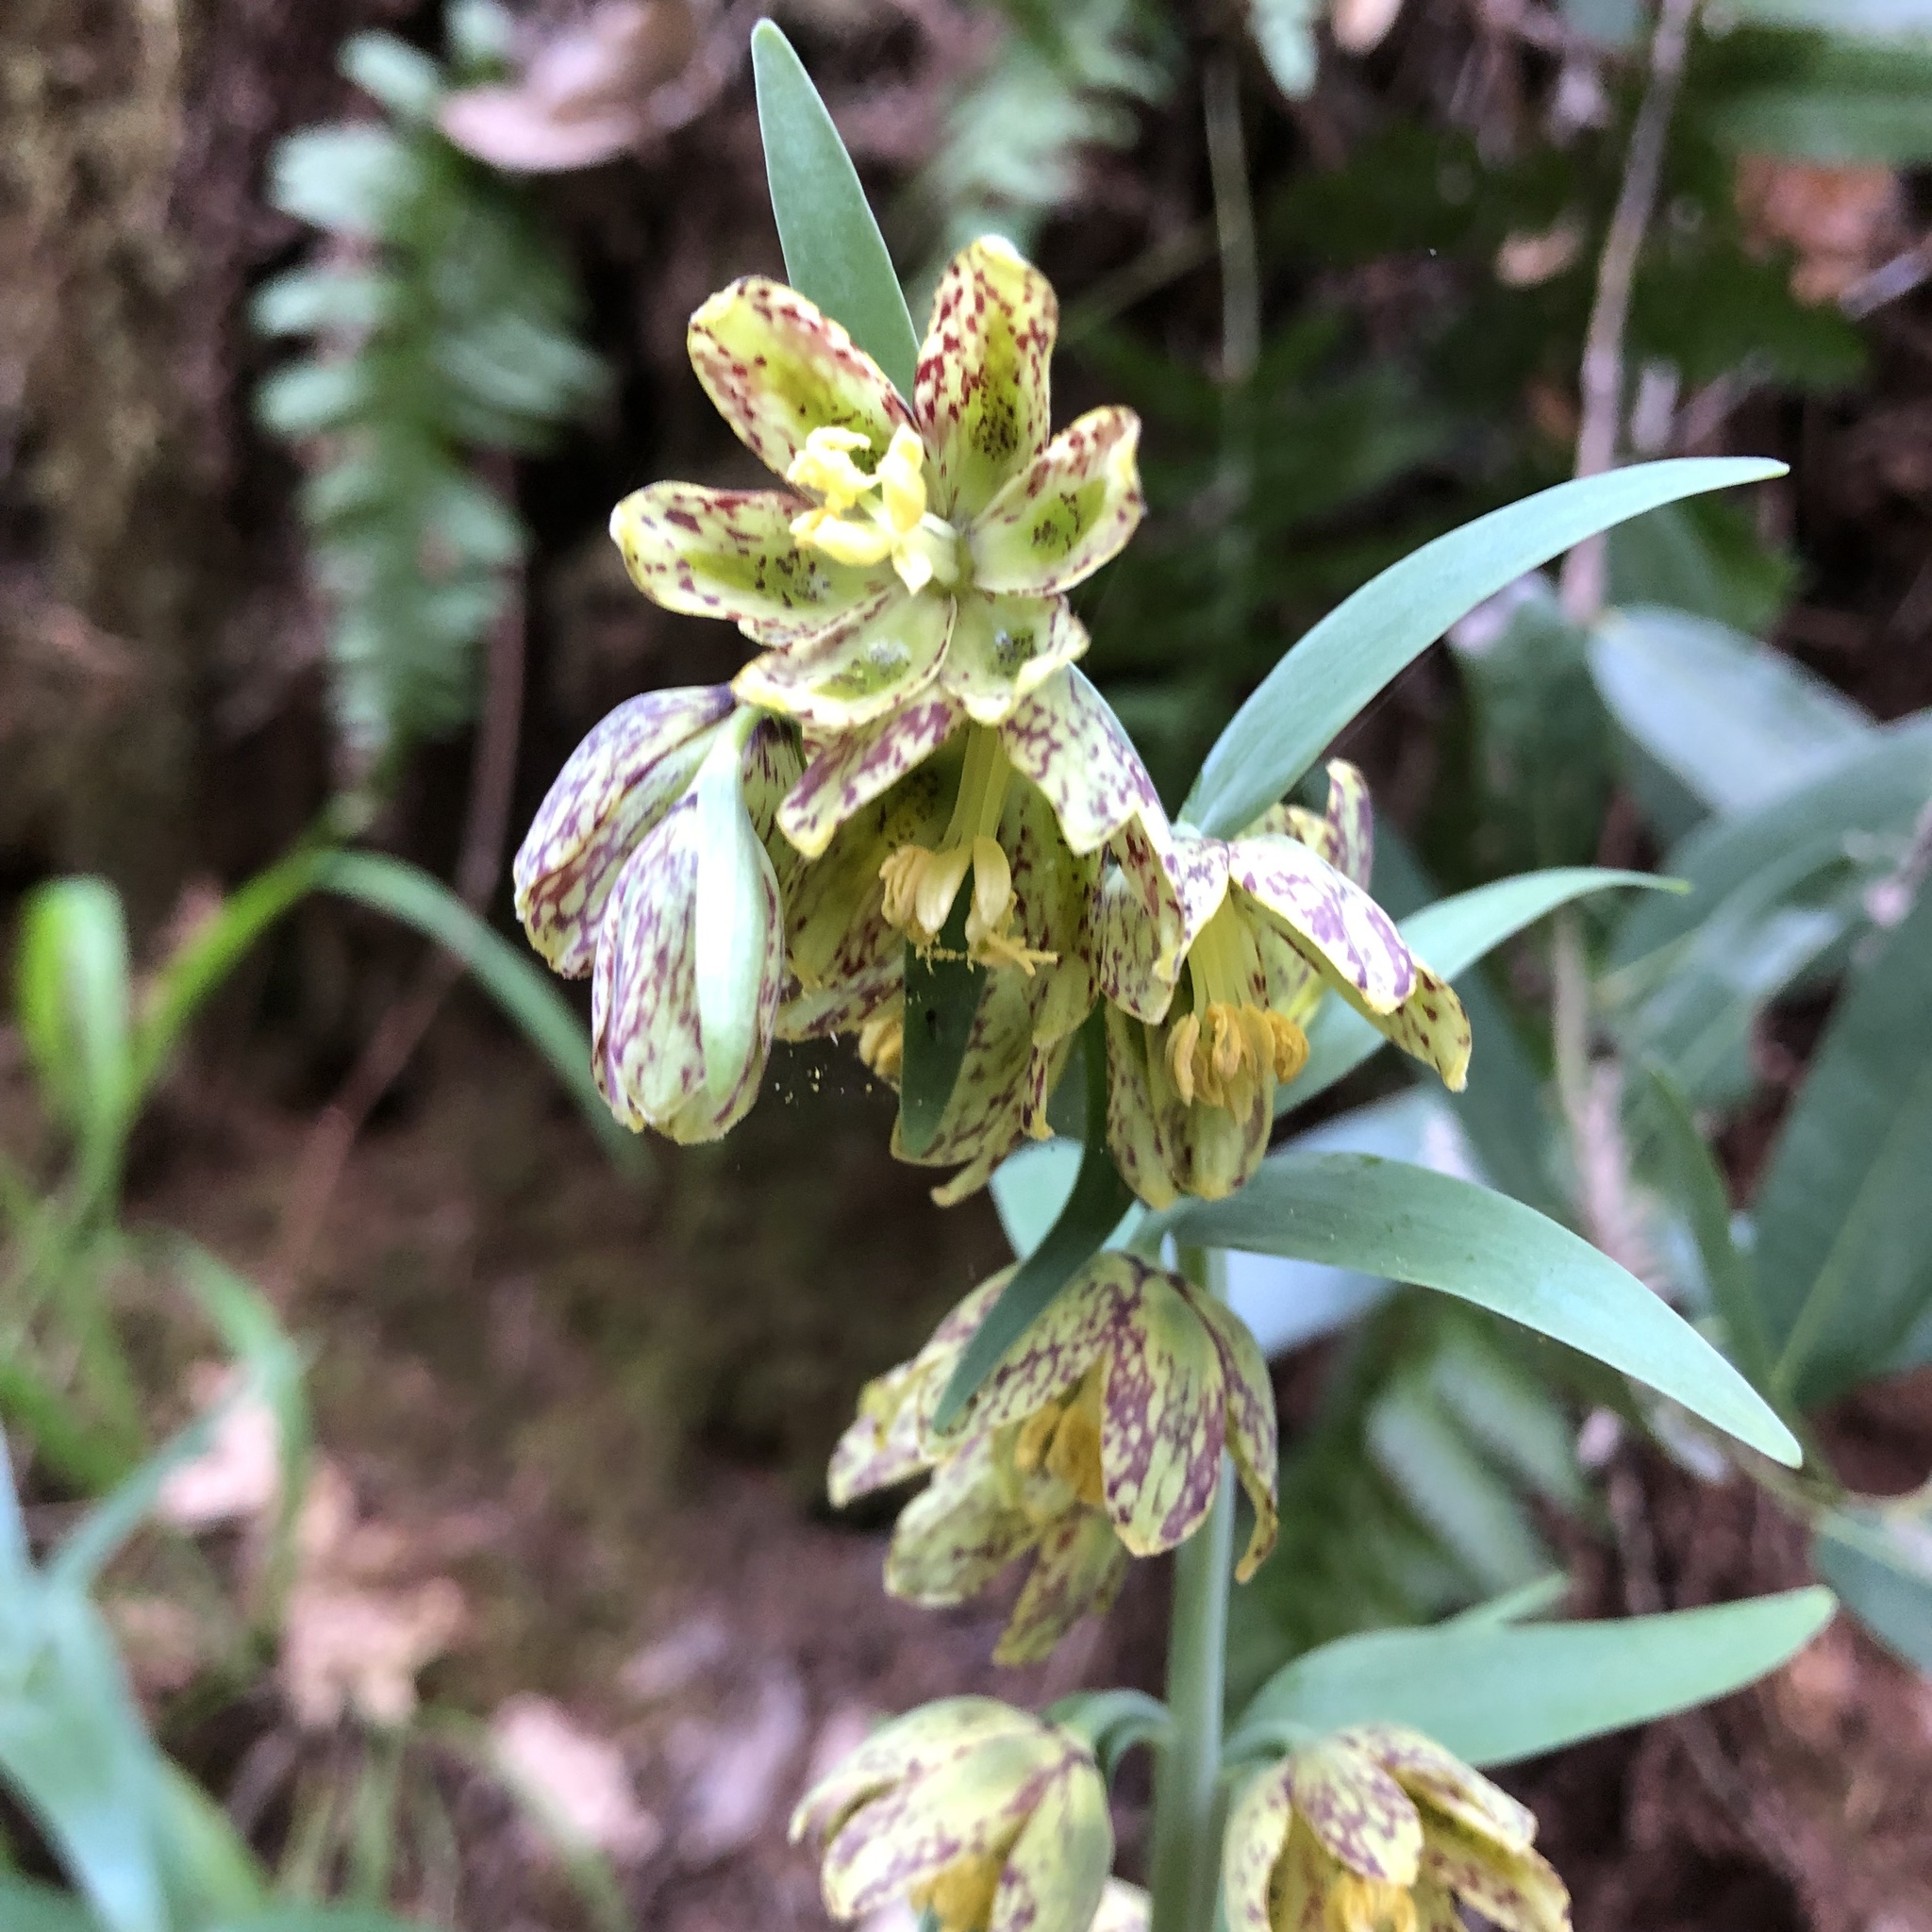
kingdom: Plantae
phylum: Tracheophyta
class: Liliopsida
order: Liliales
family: Liliaceae
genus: Fritillaria
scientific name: Fritillaria affinis
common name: Ojai fritillary
